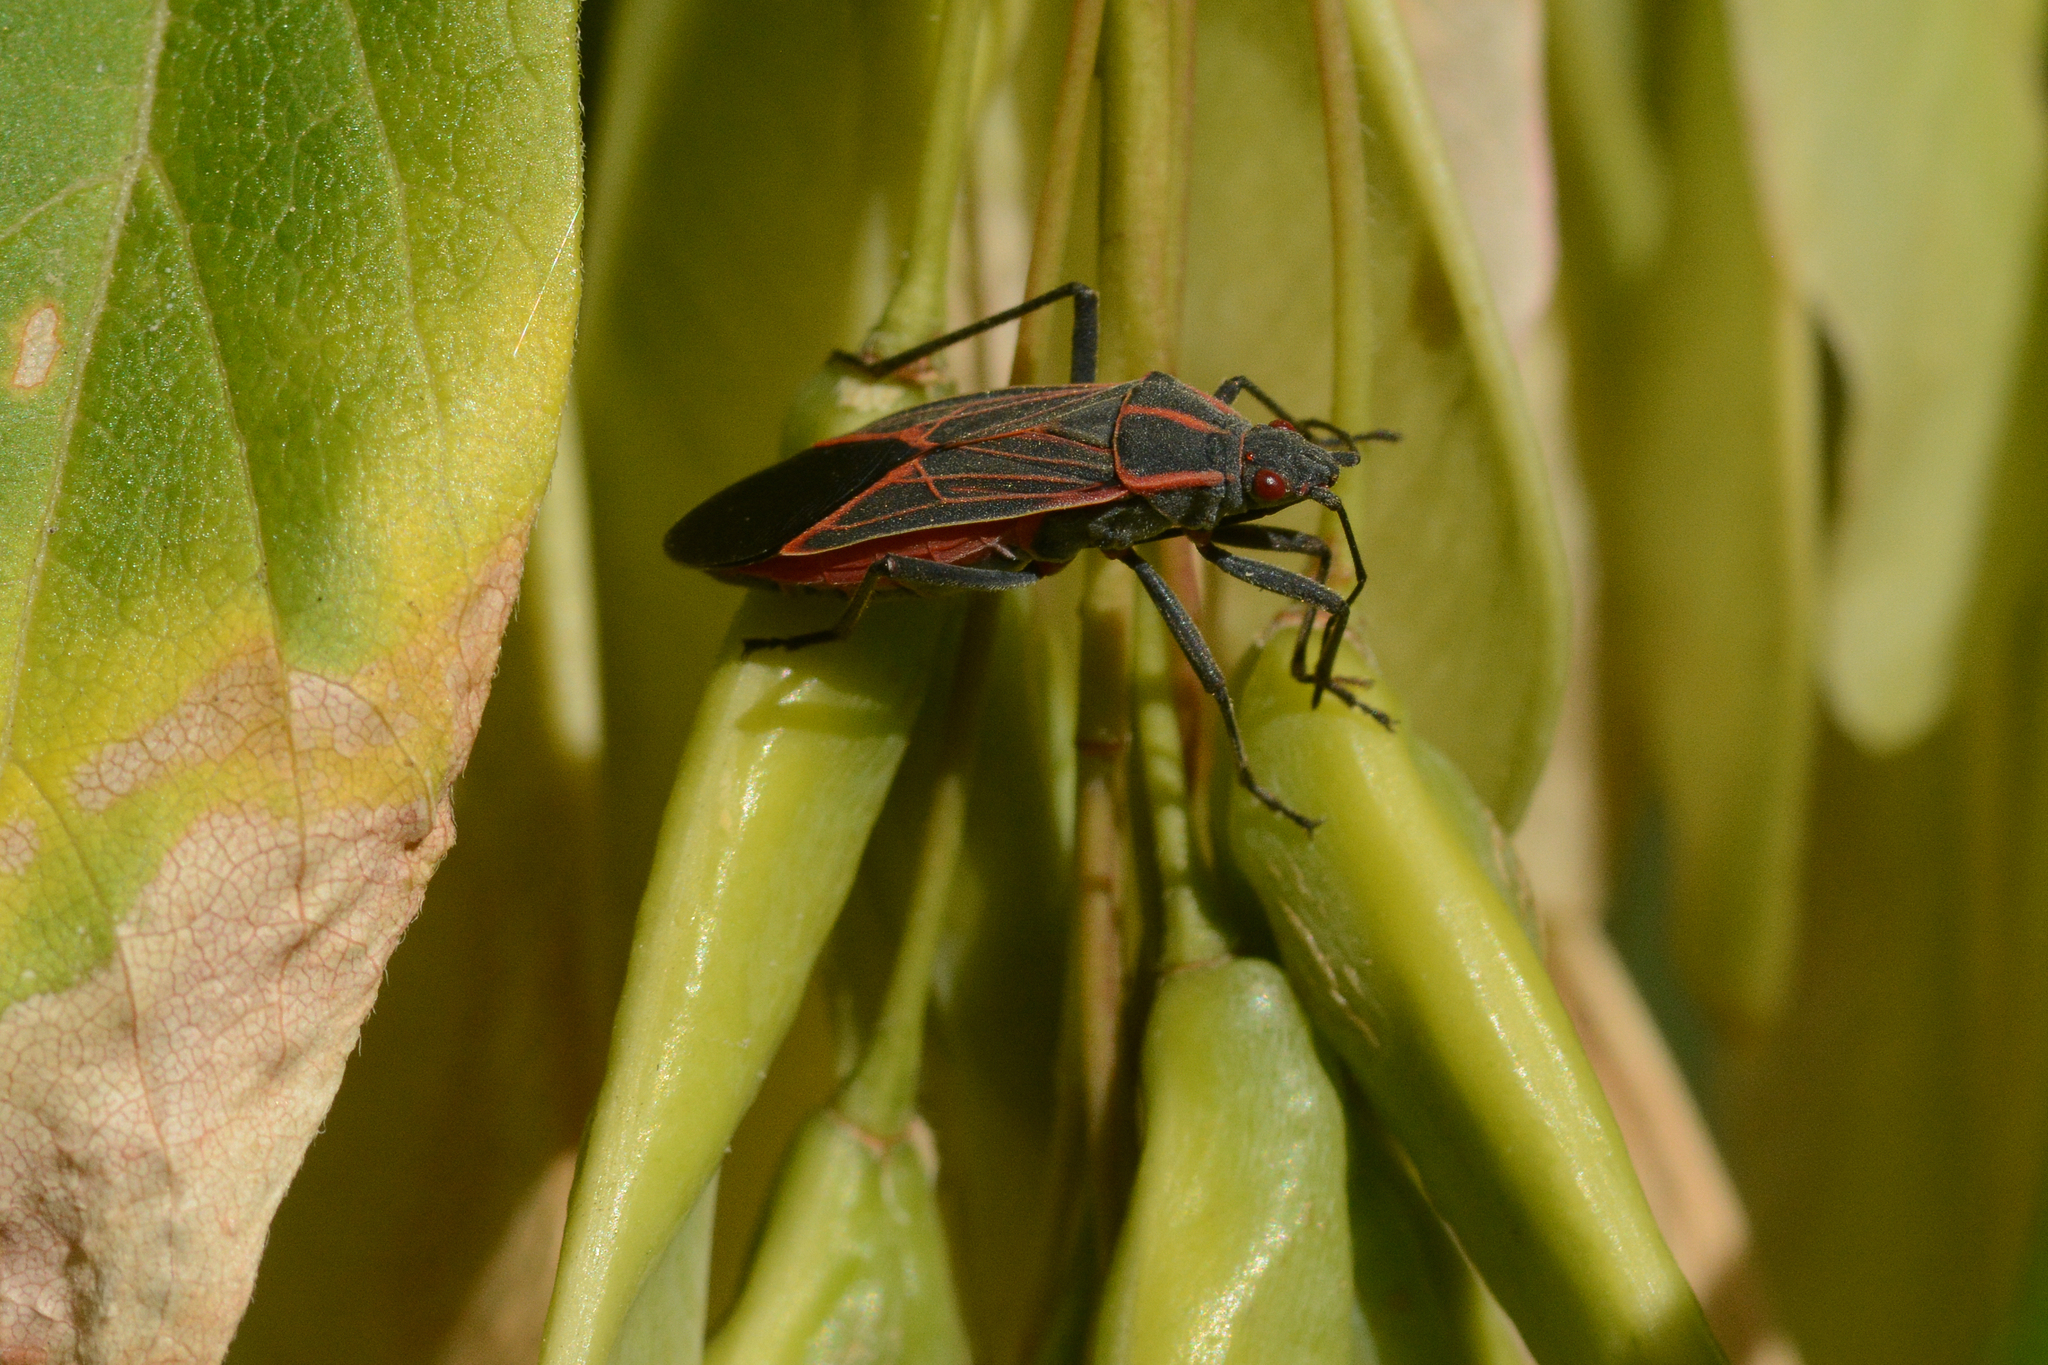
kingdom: Animalia
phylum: Arthropoda
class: Insecta
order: Hemiptera
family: Rhopalidae
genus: Boisea
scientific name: Boisea rubrolineata
